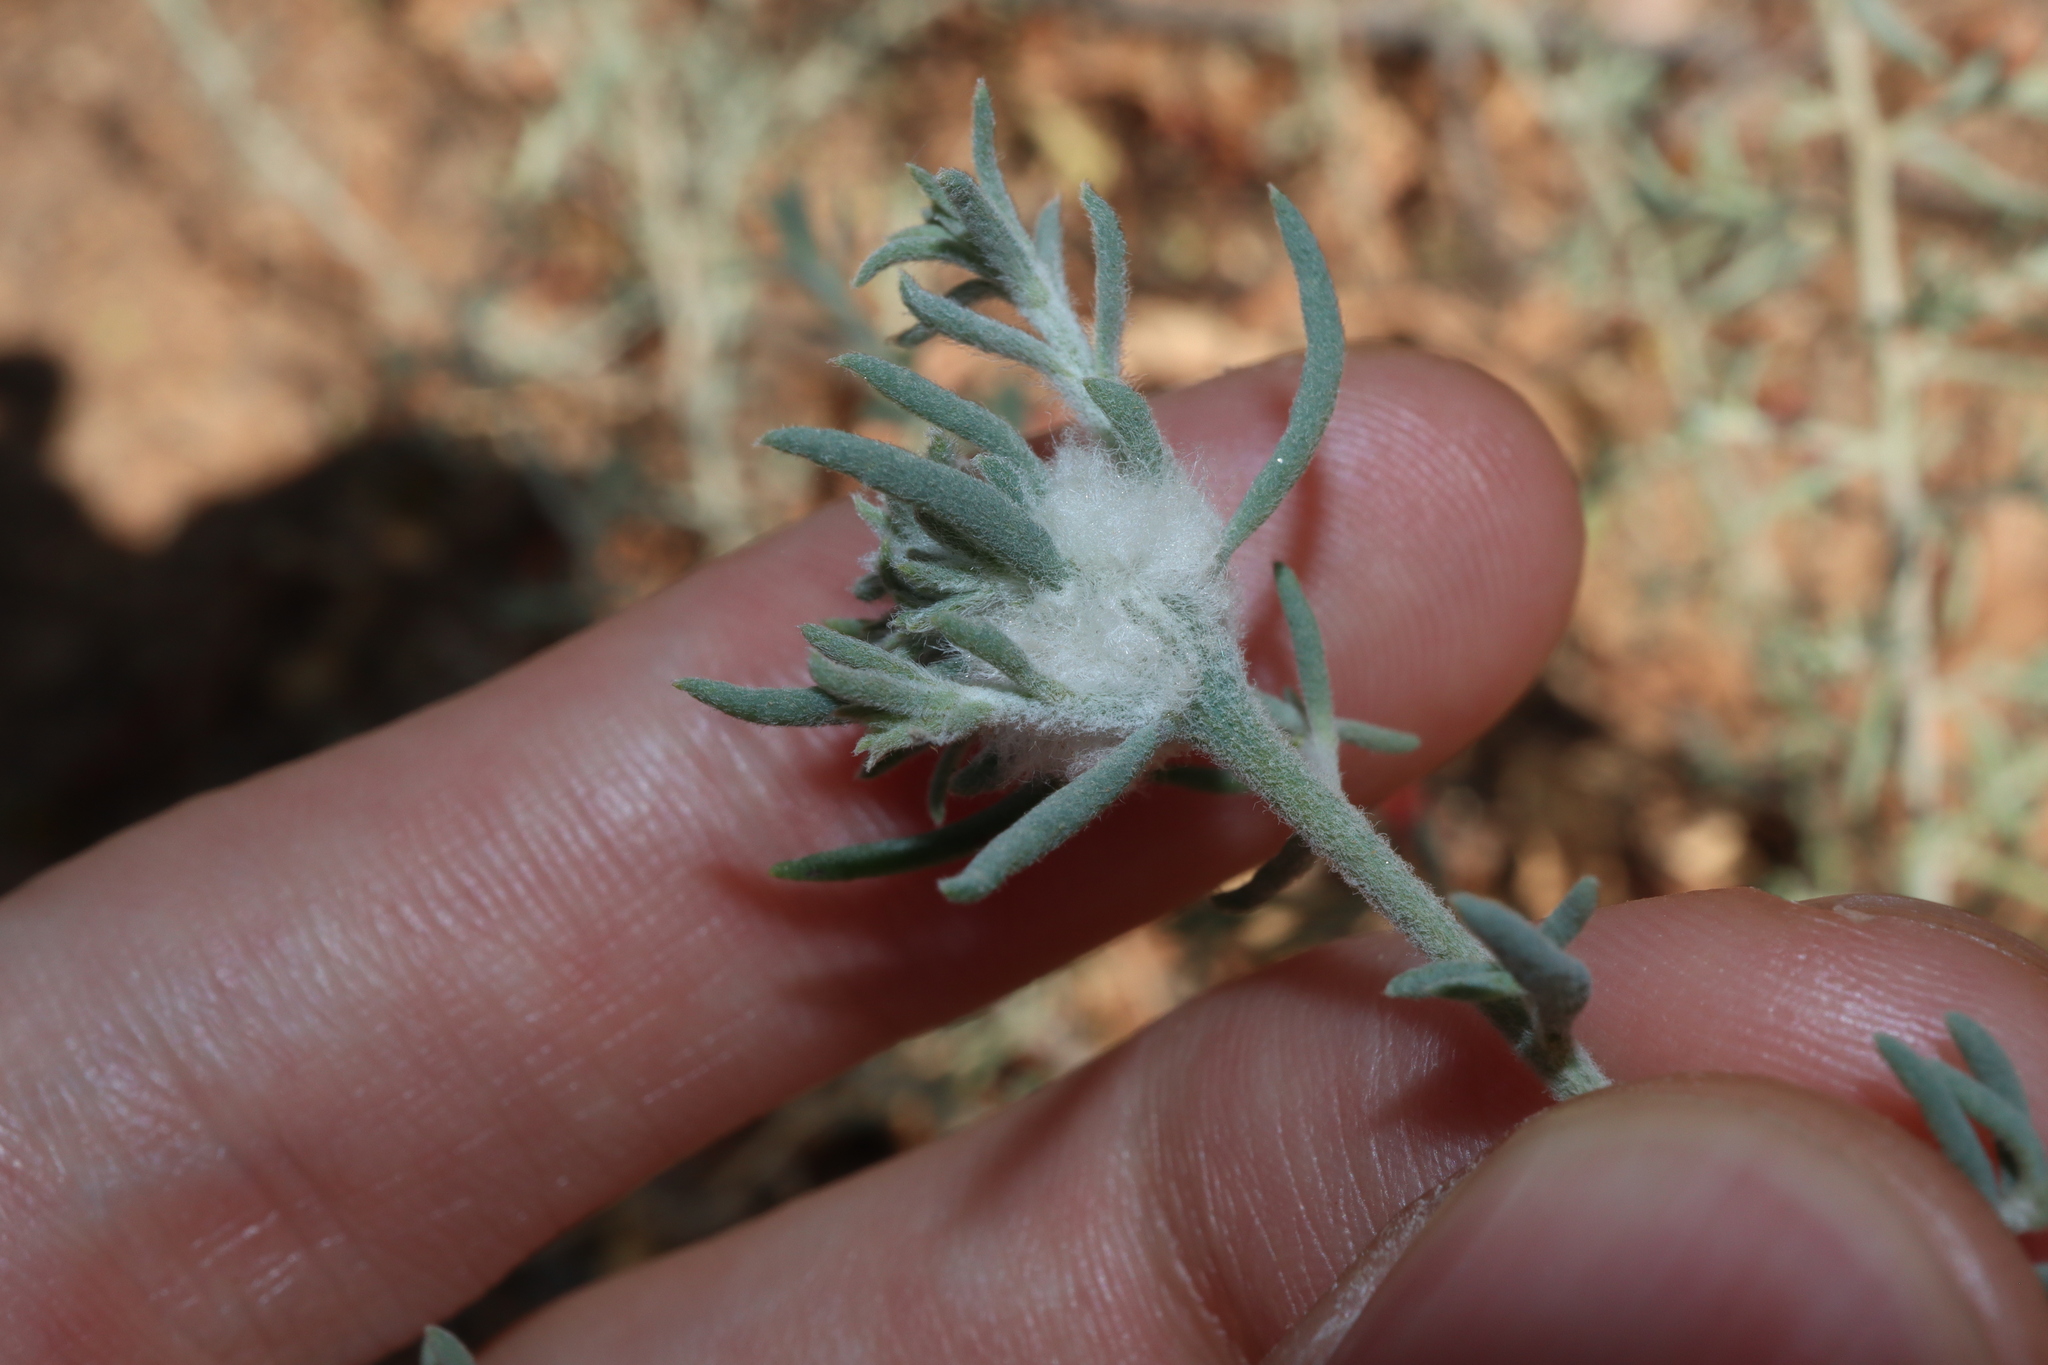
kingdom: Animalia
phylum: Arthropoda
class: Insecta
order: Diptera
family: Cecidomyiidae
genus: Asphondylia
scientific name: Asphondylia tonsura
